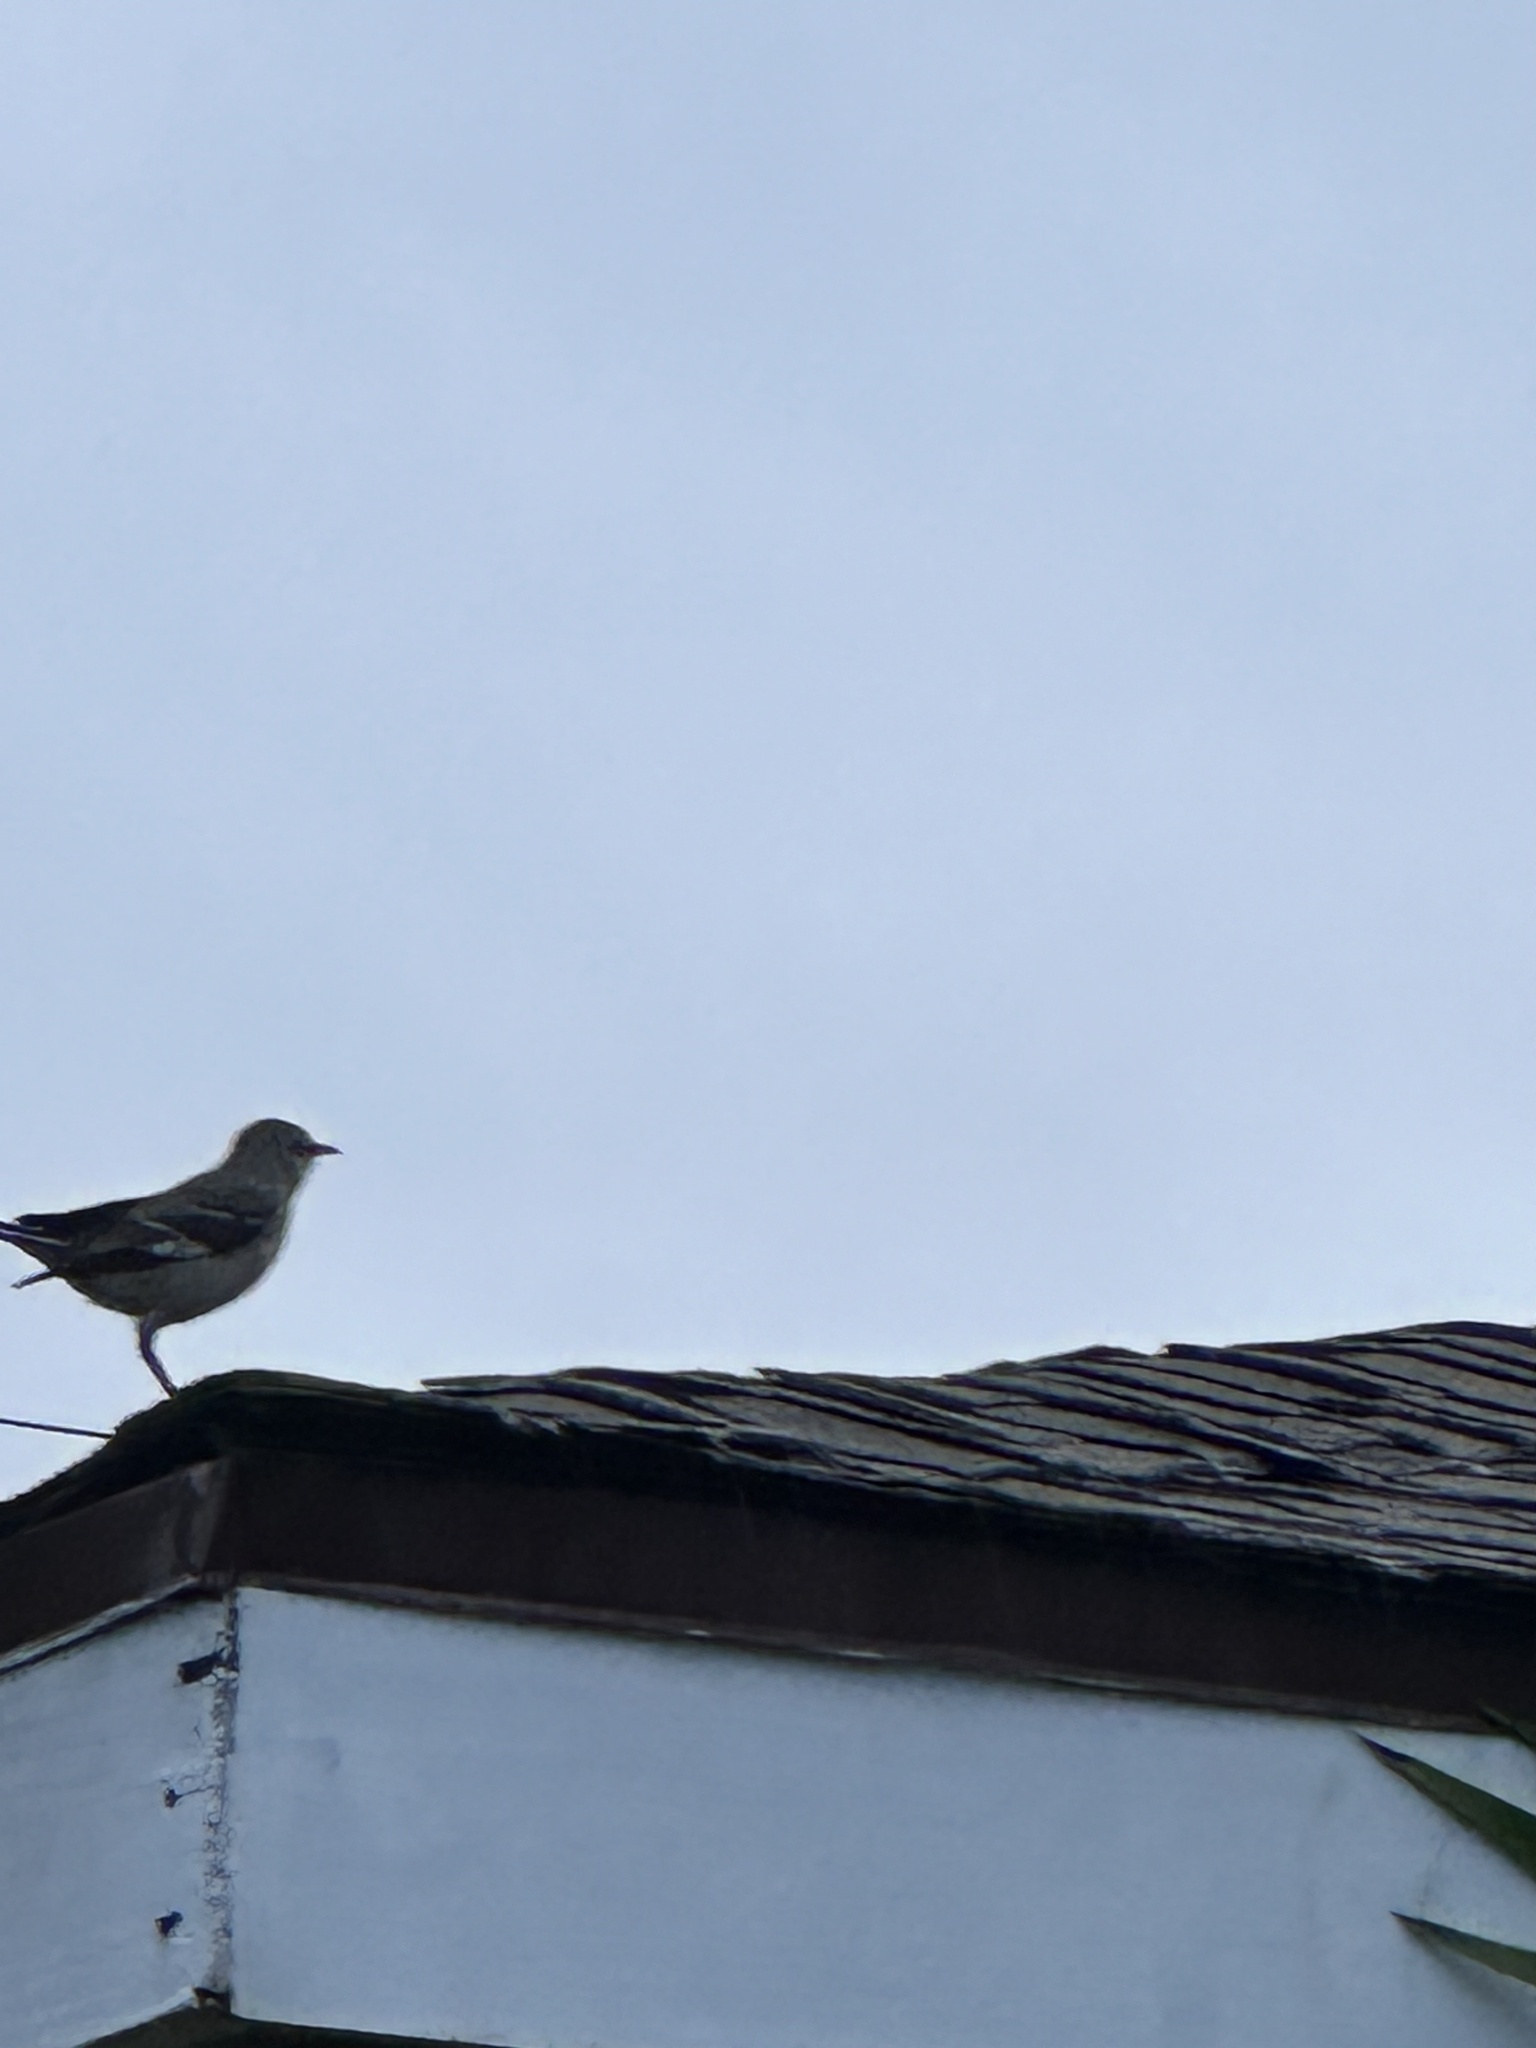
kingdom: Animalia
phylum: Chordata
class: Aves
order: Passeriformes
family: Mimidae
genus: Mimus
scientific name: Mimus polyglottos
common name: Northern mockingbird
